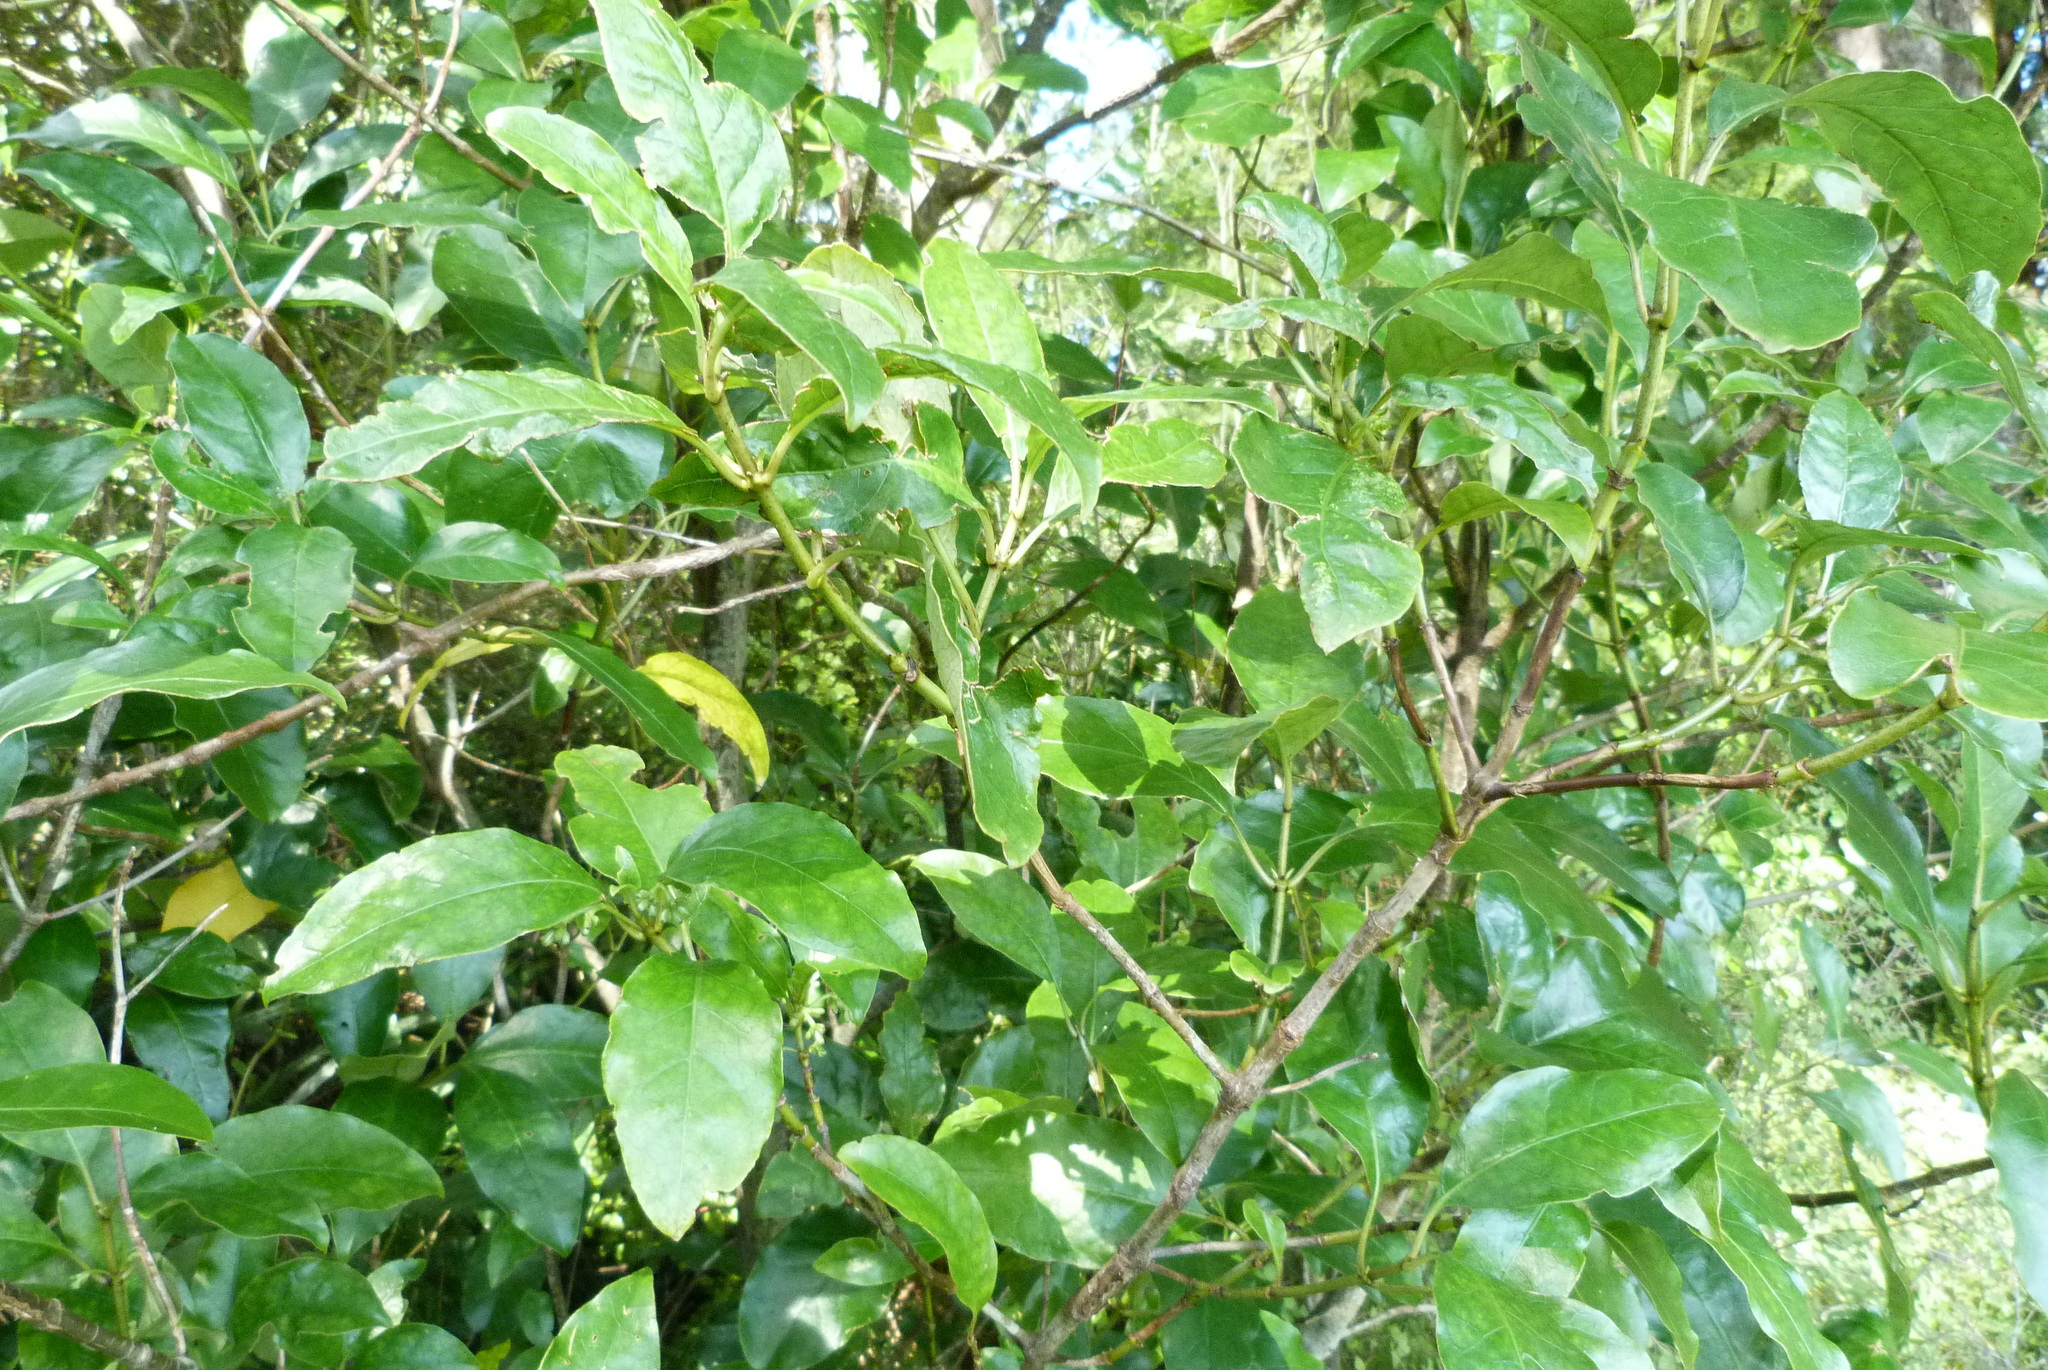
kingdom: Plantae
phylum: Tracheophyta
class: Magnoliopsida
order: Gentianales
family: Rubiaceae
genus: Coprosma
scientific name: Coprosma autumnalis
